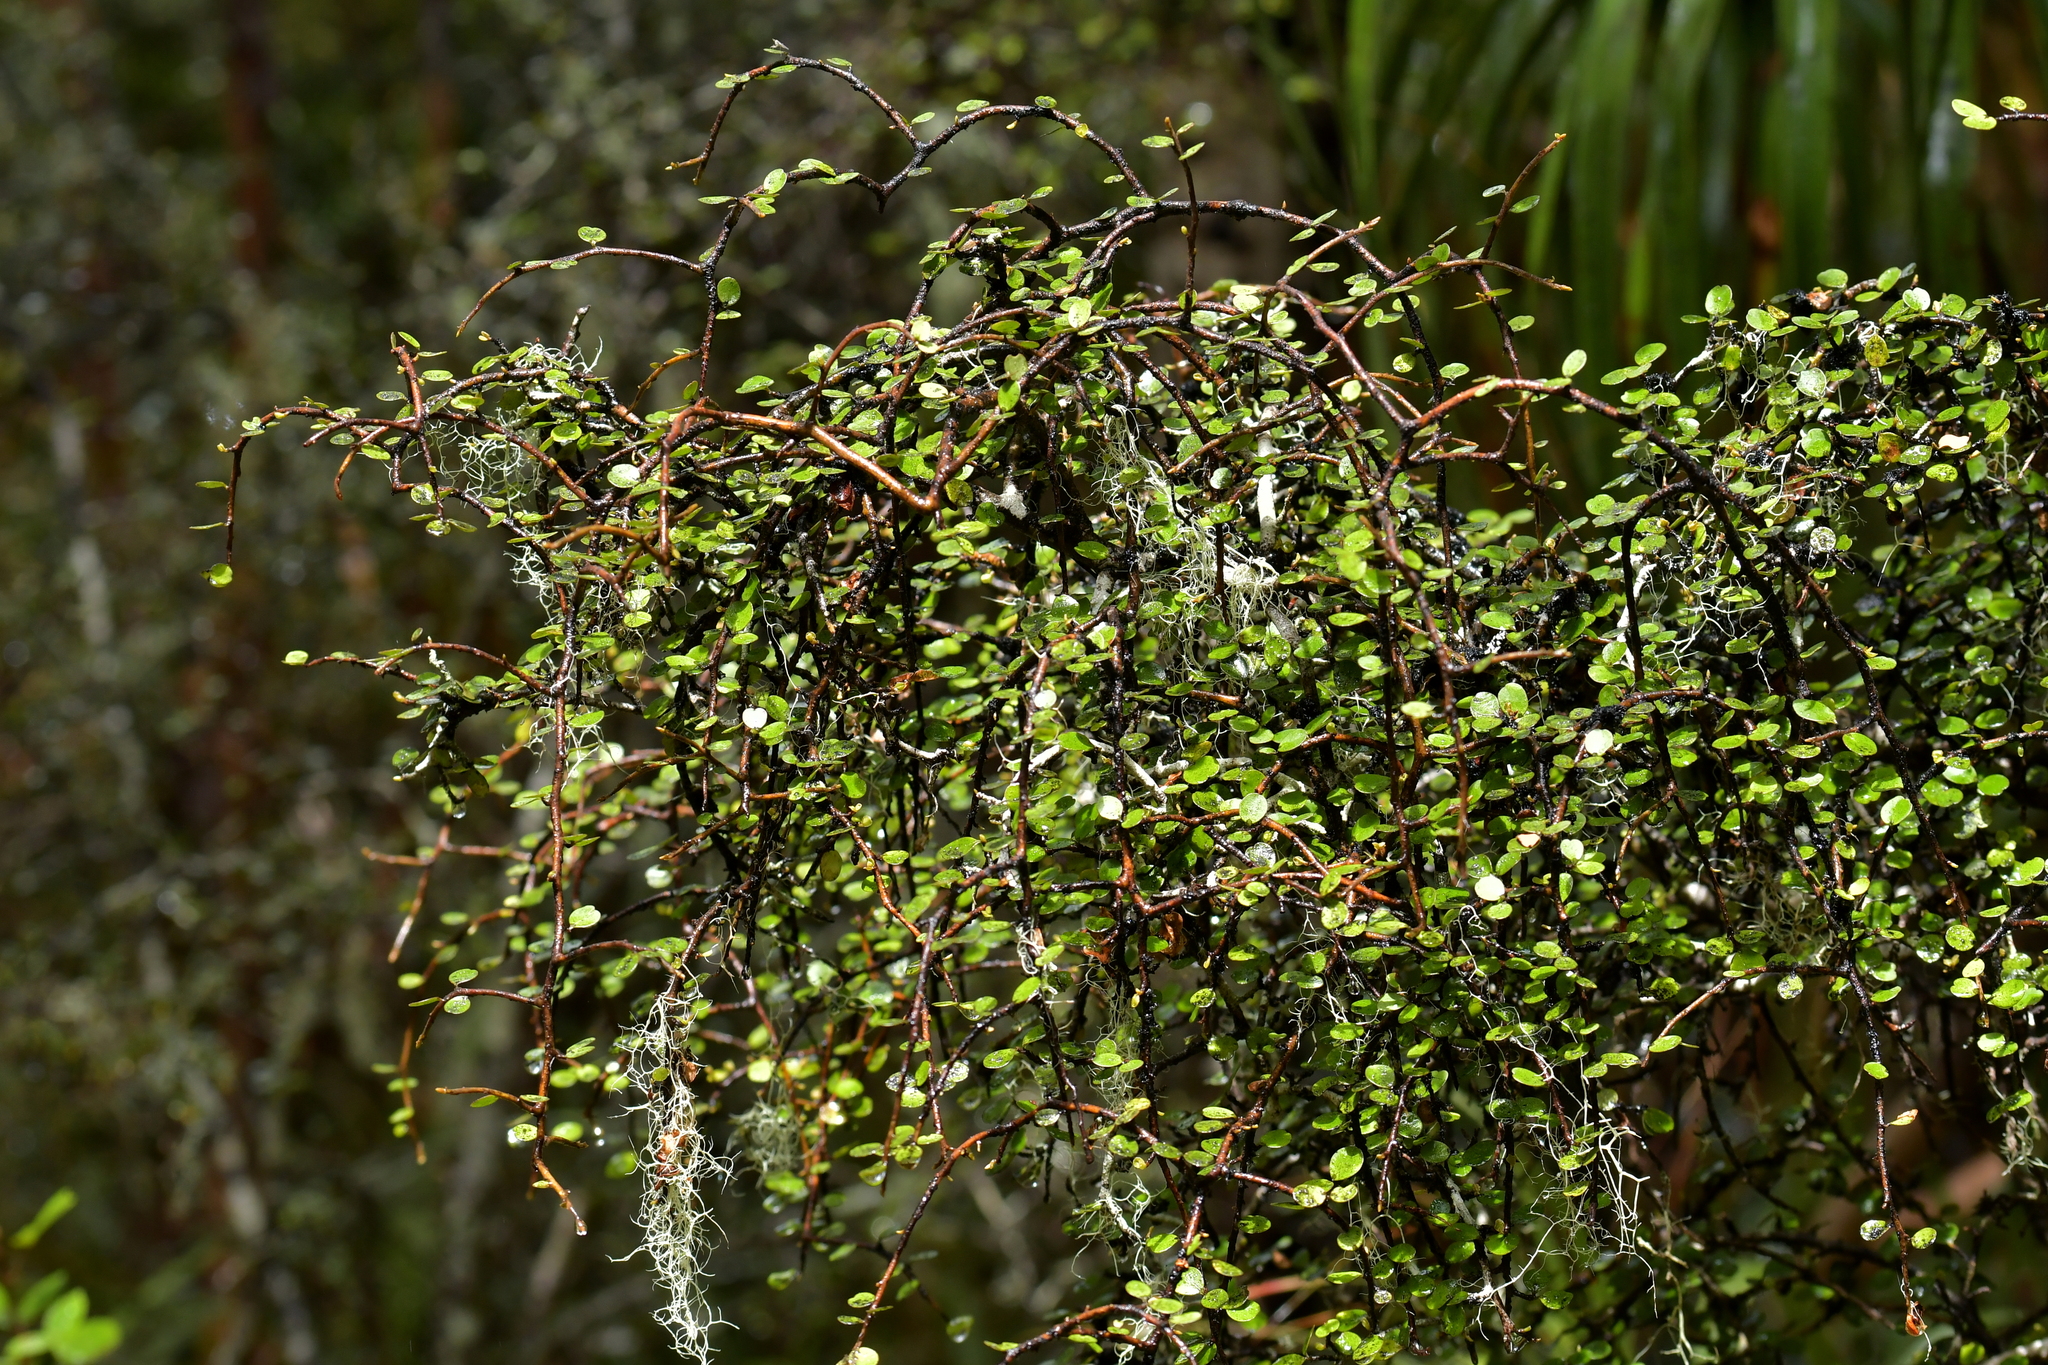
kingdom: Plantae
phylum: Tracheophyta
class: Magnoliopsida
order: Ericales
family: Primulaceae
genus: Myrsine
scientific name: Myrsine divaricata
